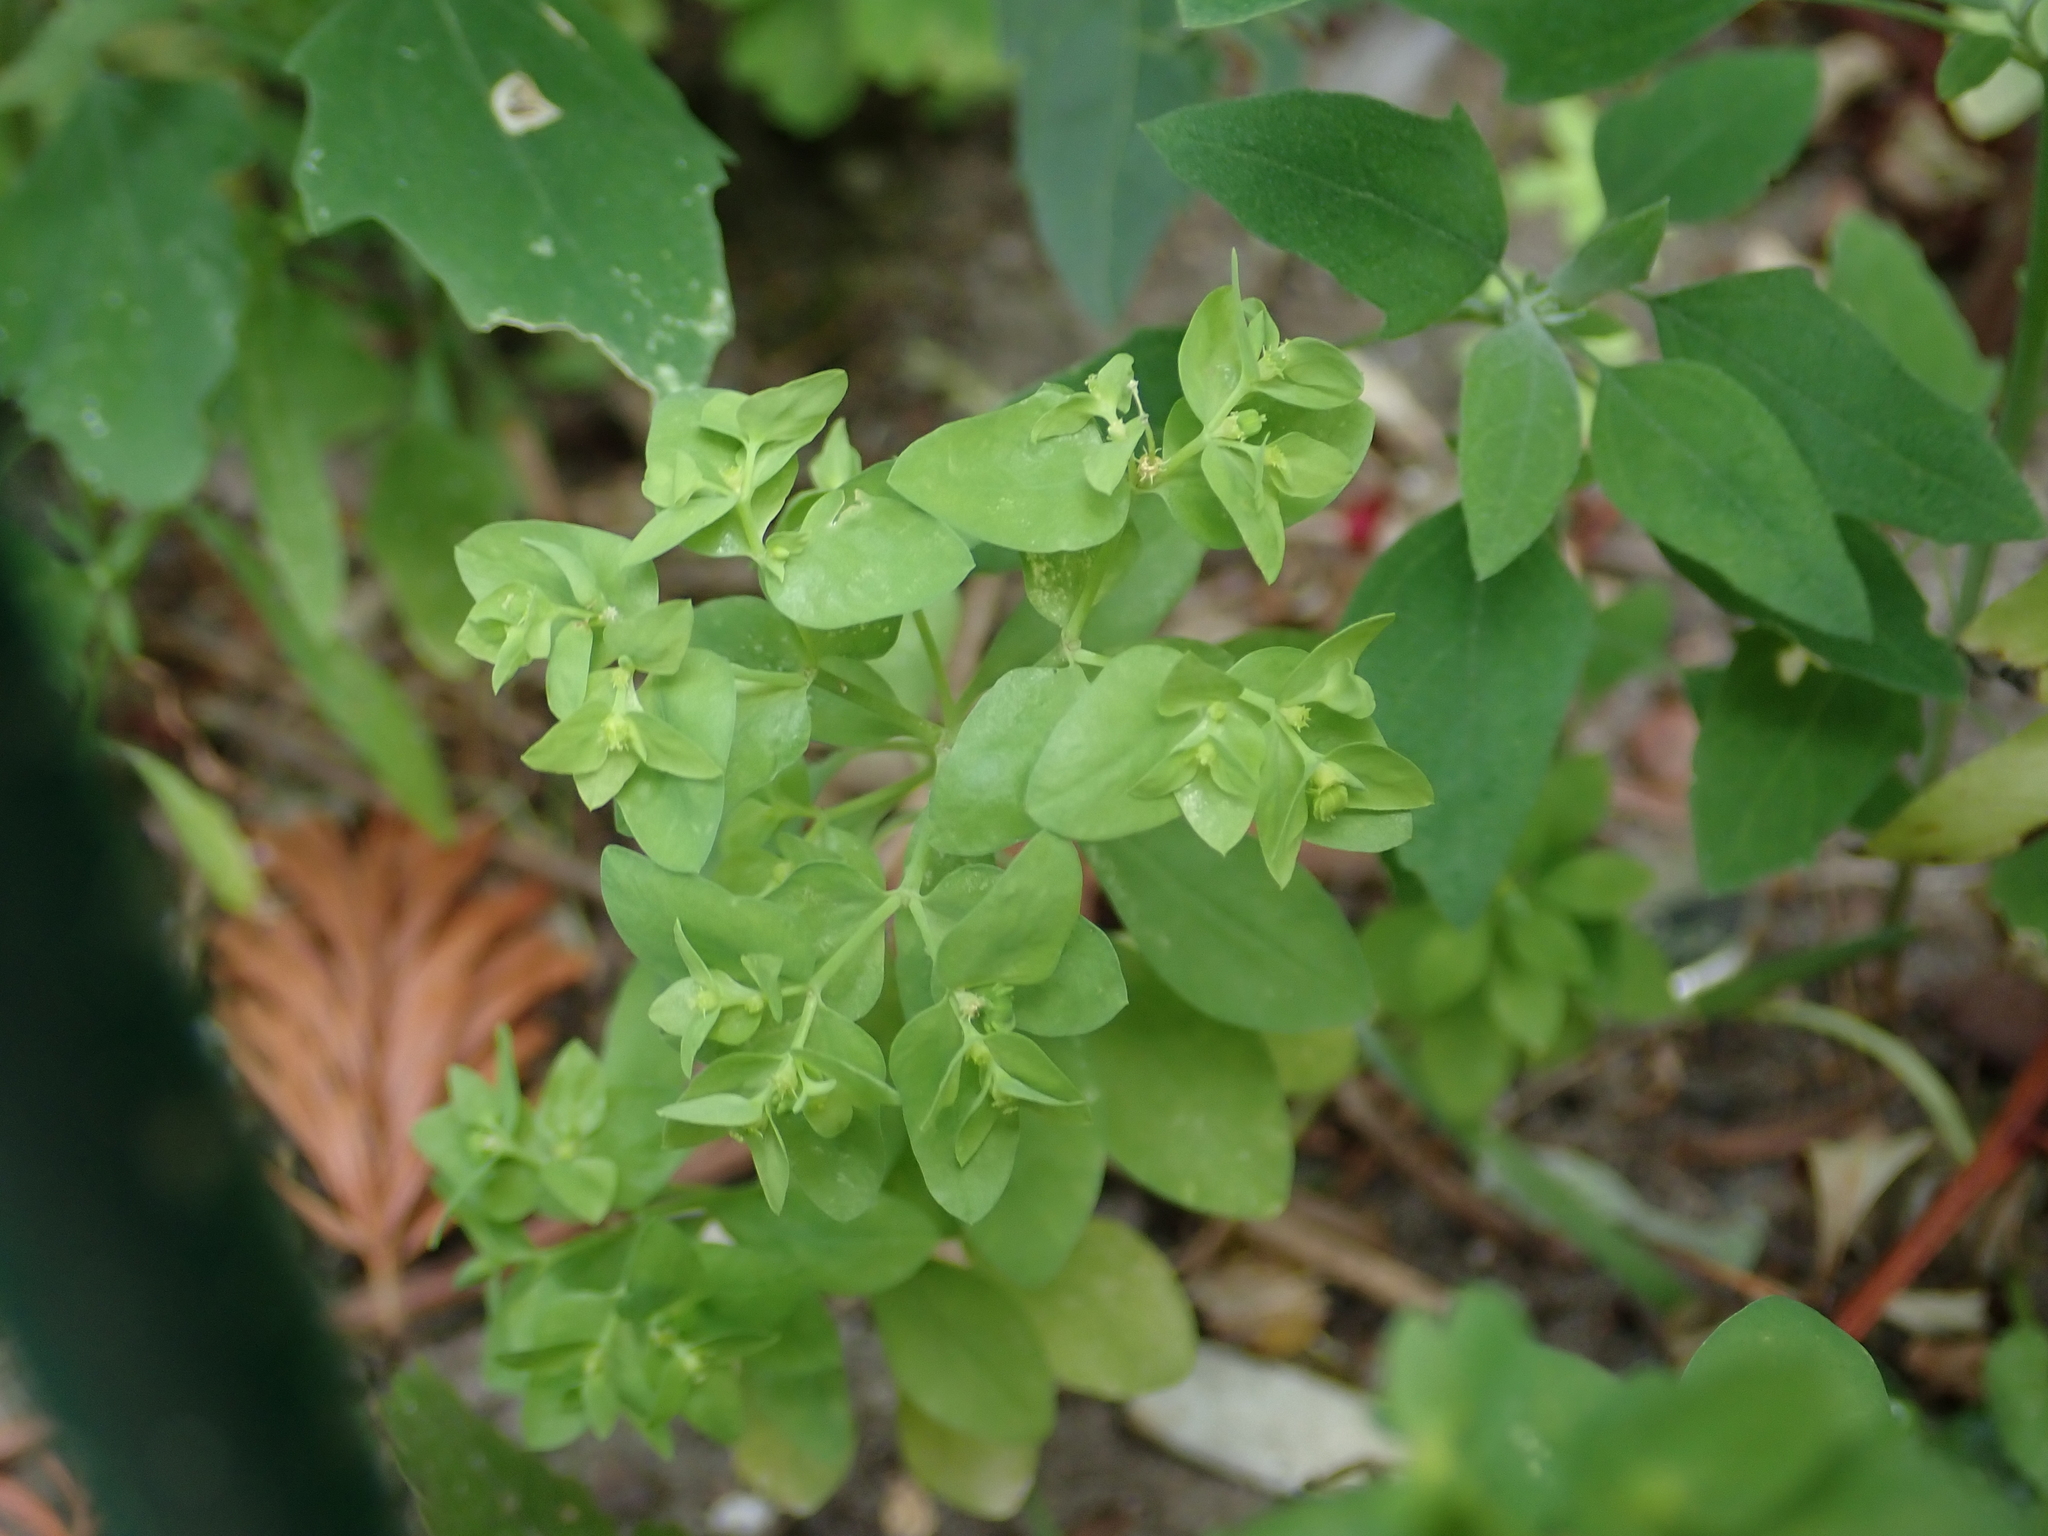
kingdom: Plantae
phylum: Tracheophyta
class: Magnoliopsida
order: Malpighiales
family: Euphorbiaceae
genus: Euphorbia
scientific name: Euphorbia peplus
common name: Petty spurge
